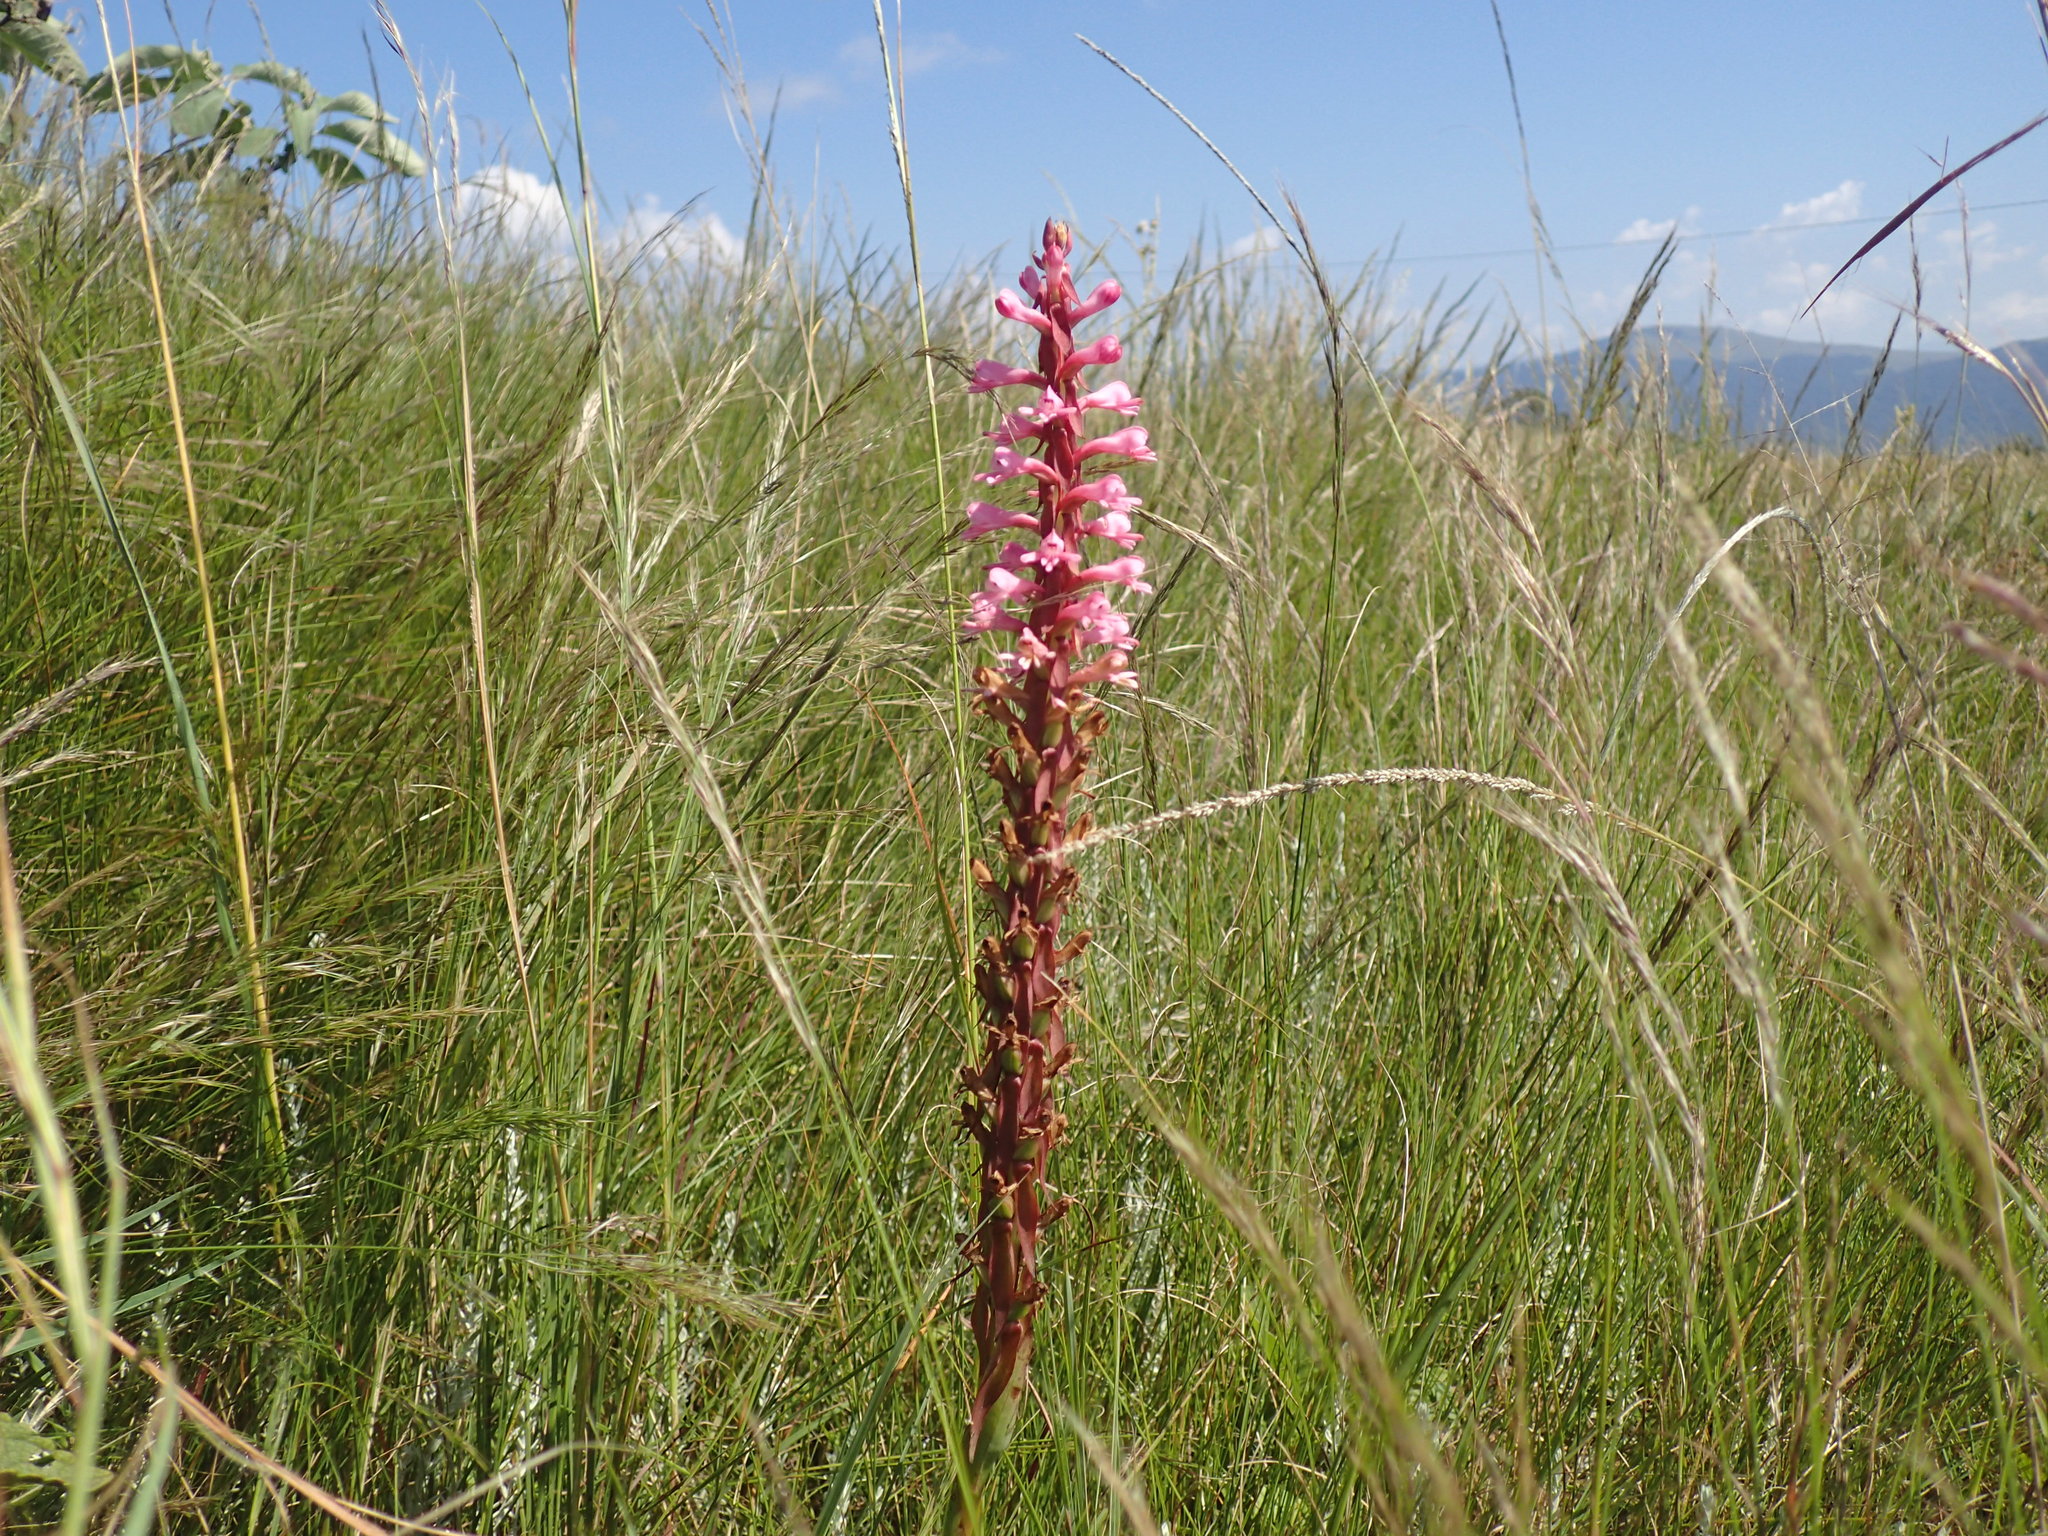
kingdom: Plantae
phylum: Tracheophyta
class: Liliopsida
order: Asparagales
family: Orchidaceae
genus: Satyrium
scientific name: Satyrium macrophyllum
